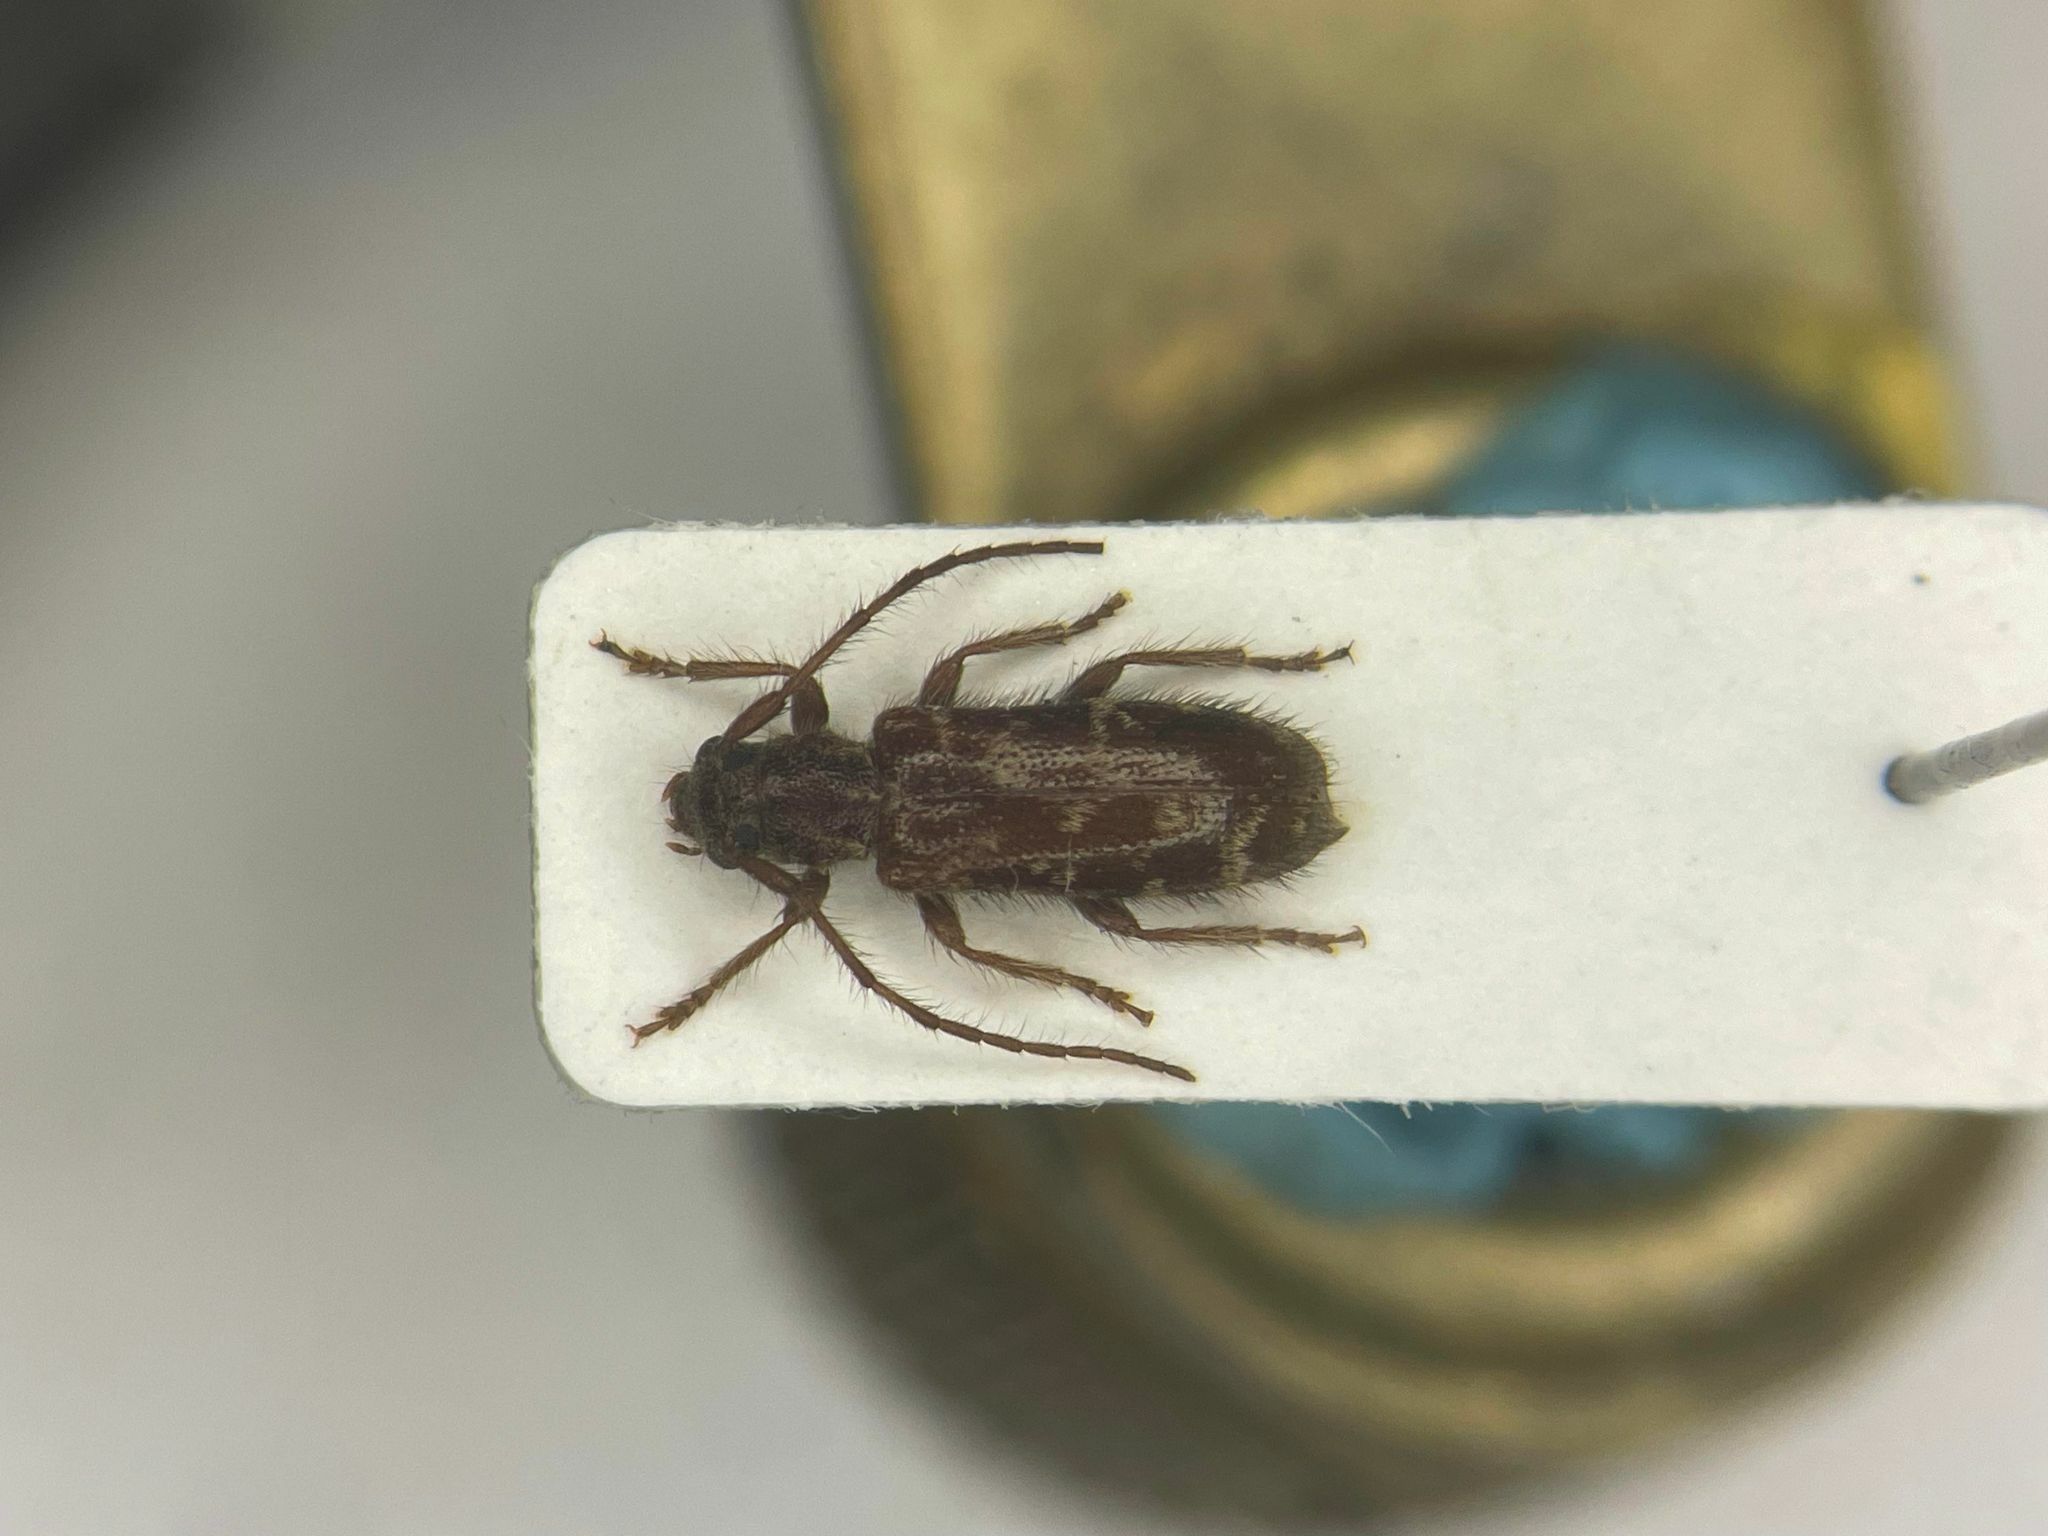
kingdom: Animalia
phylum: Arthropoda
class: Insecta
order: Coleoptera
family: Cerambycidae
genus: Eupogonius
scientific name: Eupogonius tomentosus
